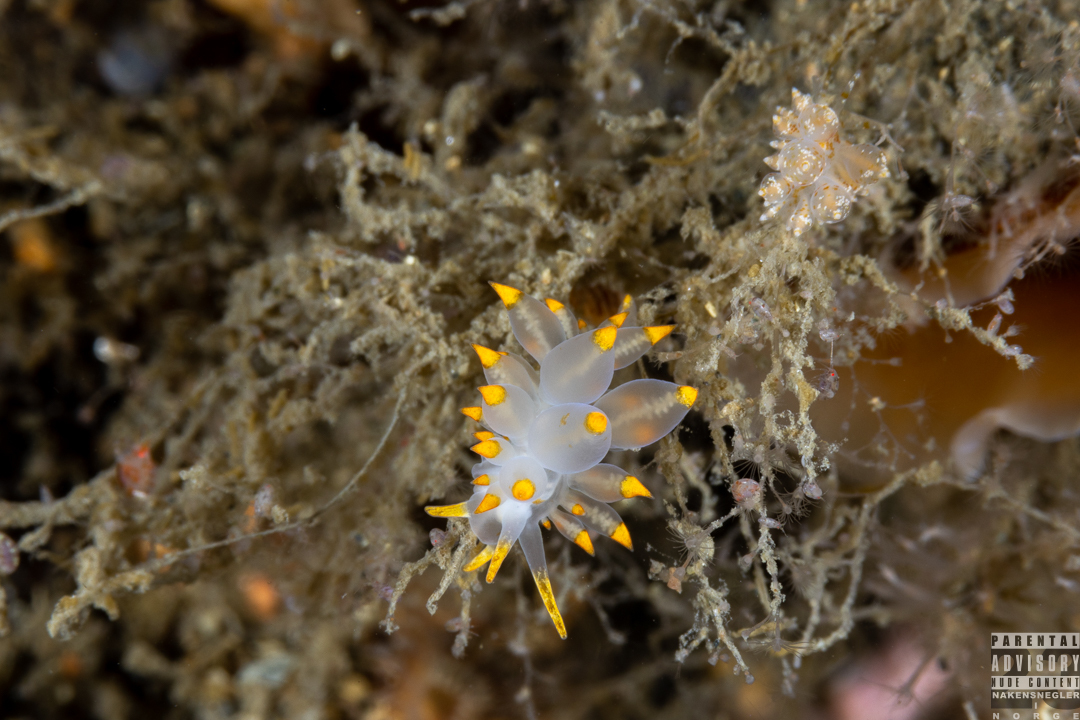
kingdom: Animalia
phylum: Mollusca
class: Gastropoda
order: Nudibranchia
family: Eubranchidae
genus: Amphorina
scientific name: Amphorina farrani
